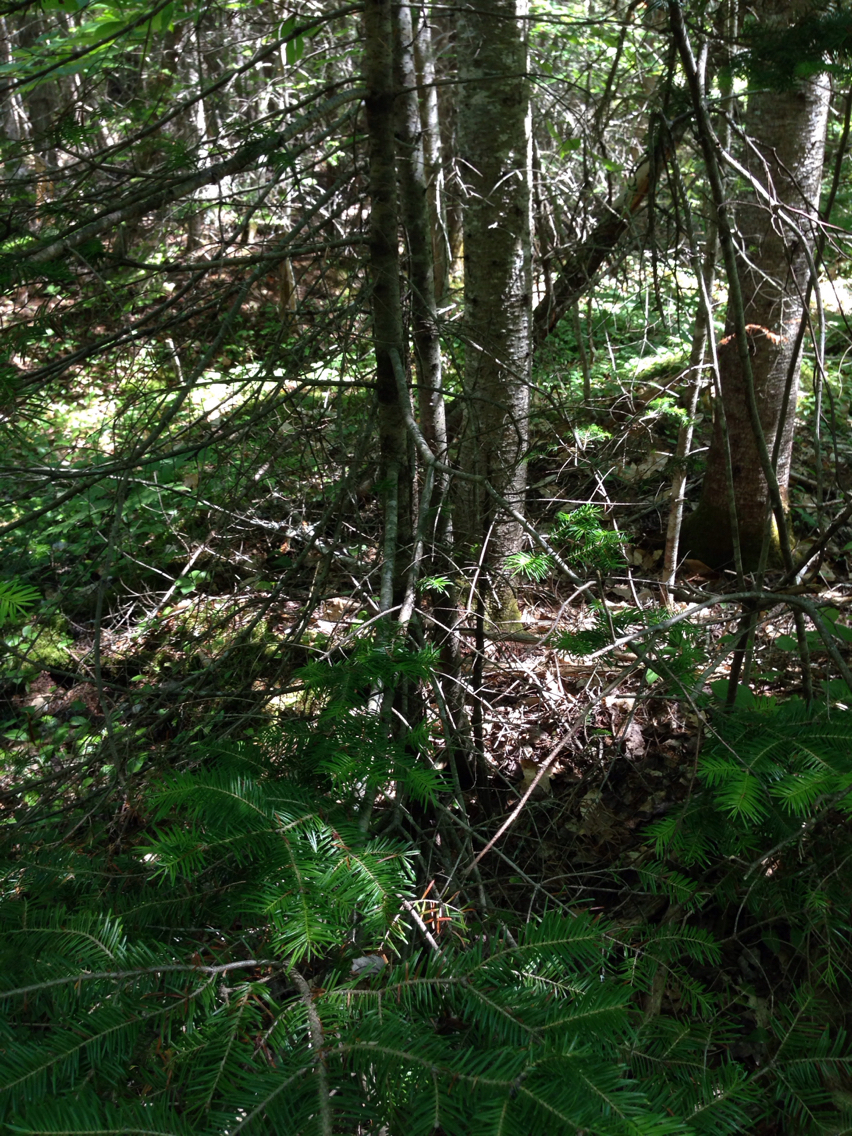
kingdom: Plantae
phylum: Tracheophyta
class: Pinopsida
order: Pinales
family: Pinaceae
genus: Abies
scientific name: Abies balsamea
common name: Balsam fir
